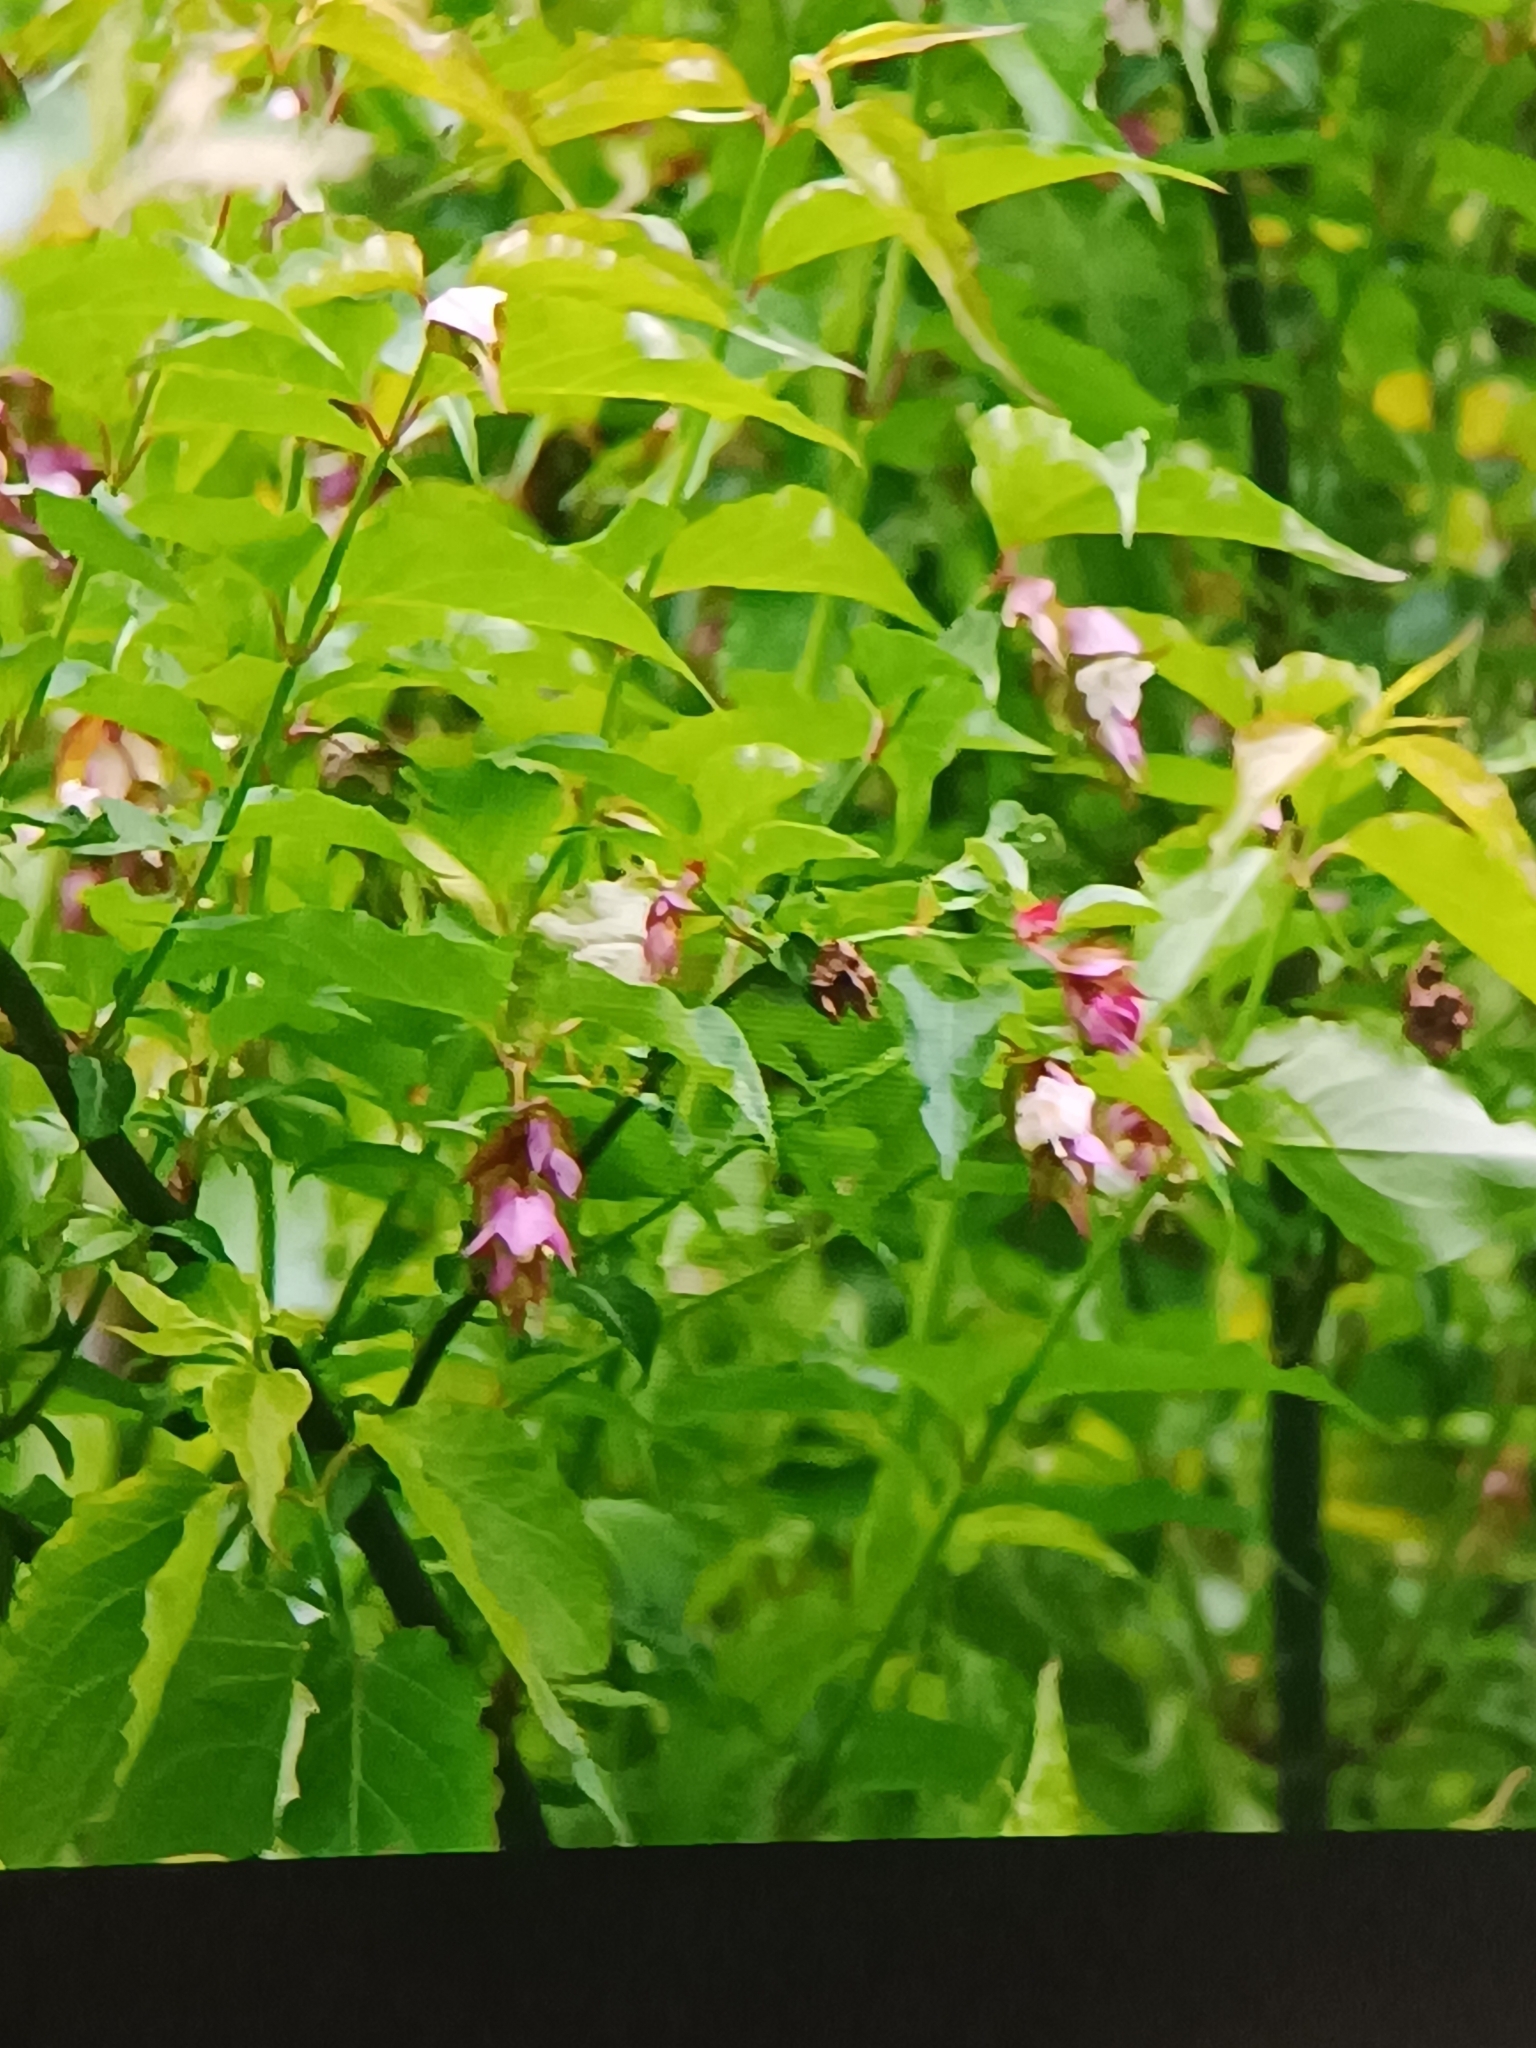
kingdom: Plantae
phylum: Tracheophyta
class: Magnoliopsida
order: Dipsacales
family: Caprifoliaceae
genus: Leycesteria
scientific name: Leycesteria formosa
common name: Himalayan honeysuckle
